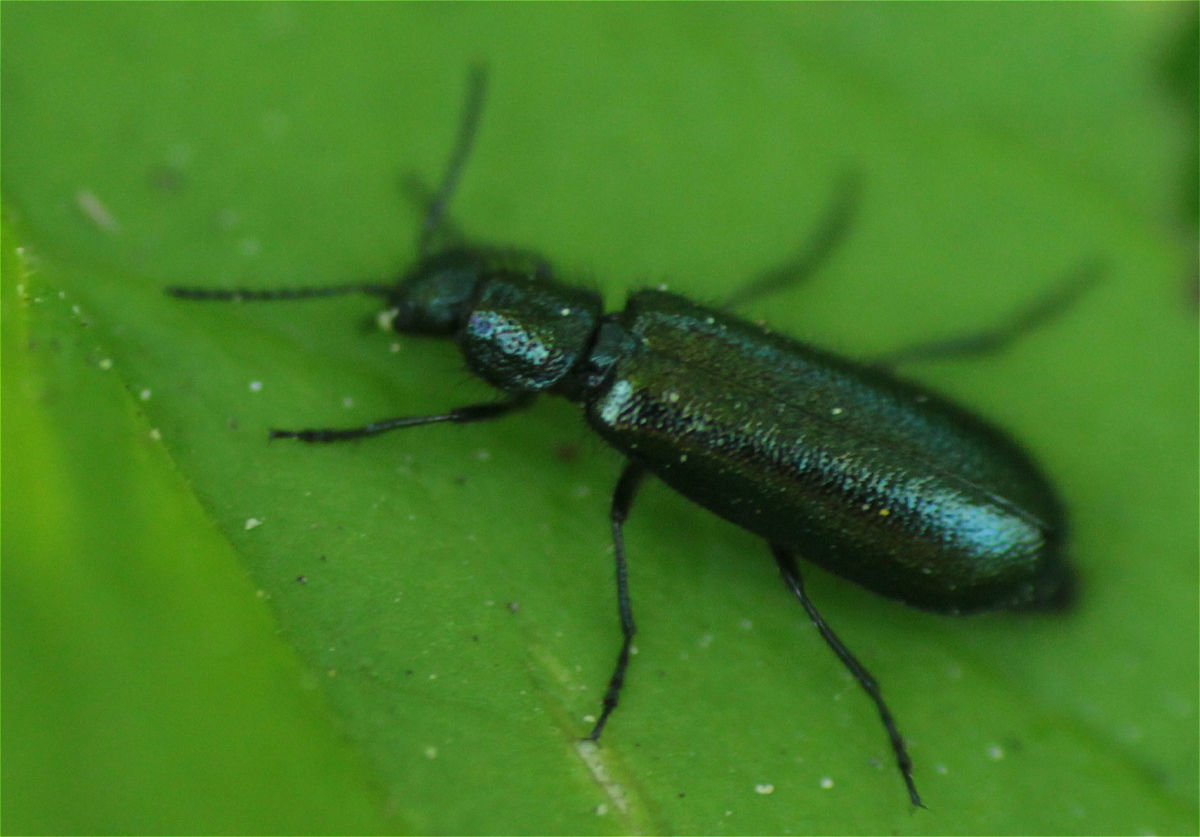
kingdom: Animalia
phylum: Arthropoda
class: Insecta
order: Coleoptera
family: Melyridae
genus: Dasytes
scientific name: Dasytes caeruleus
